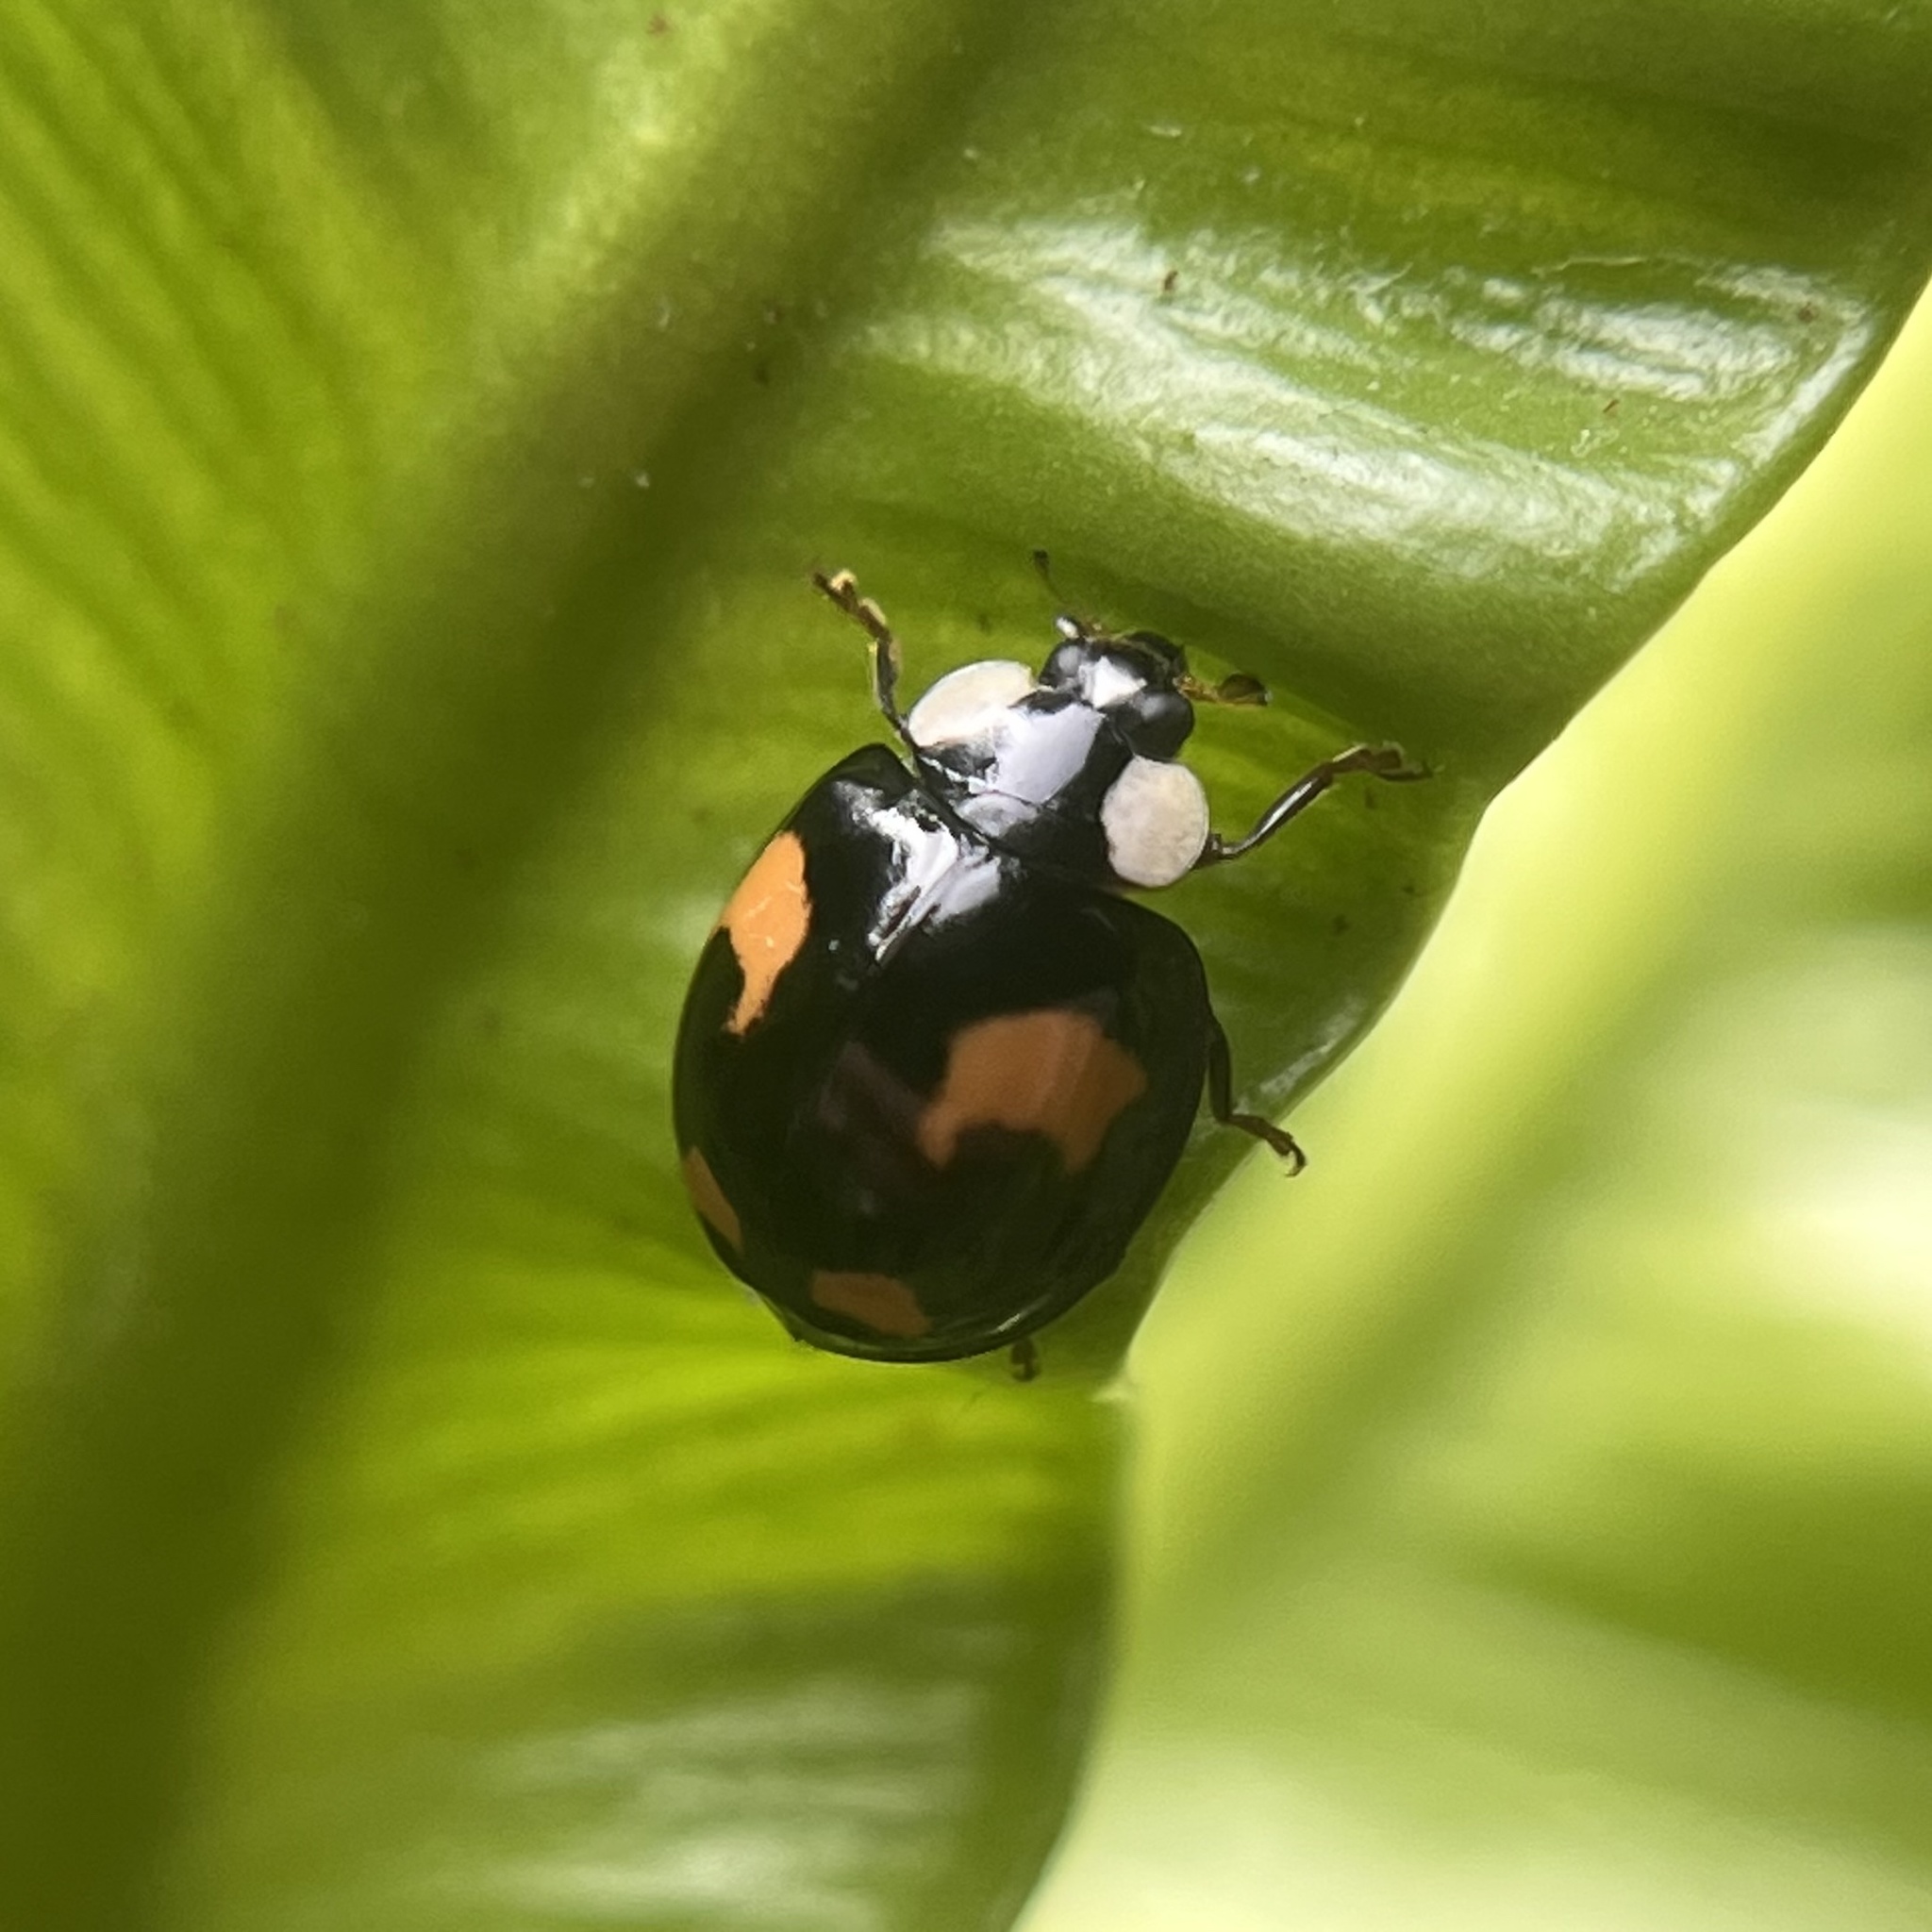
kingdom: Animalia
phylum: Arthropoda
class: Insecta
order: Coleoptera
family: Coccinellidae
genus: Harmonia
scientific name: Harmonia axyridis
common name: Harlequin ladybird
